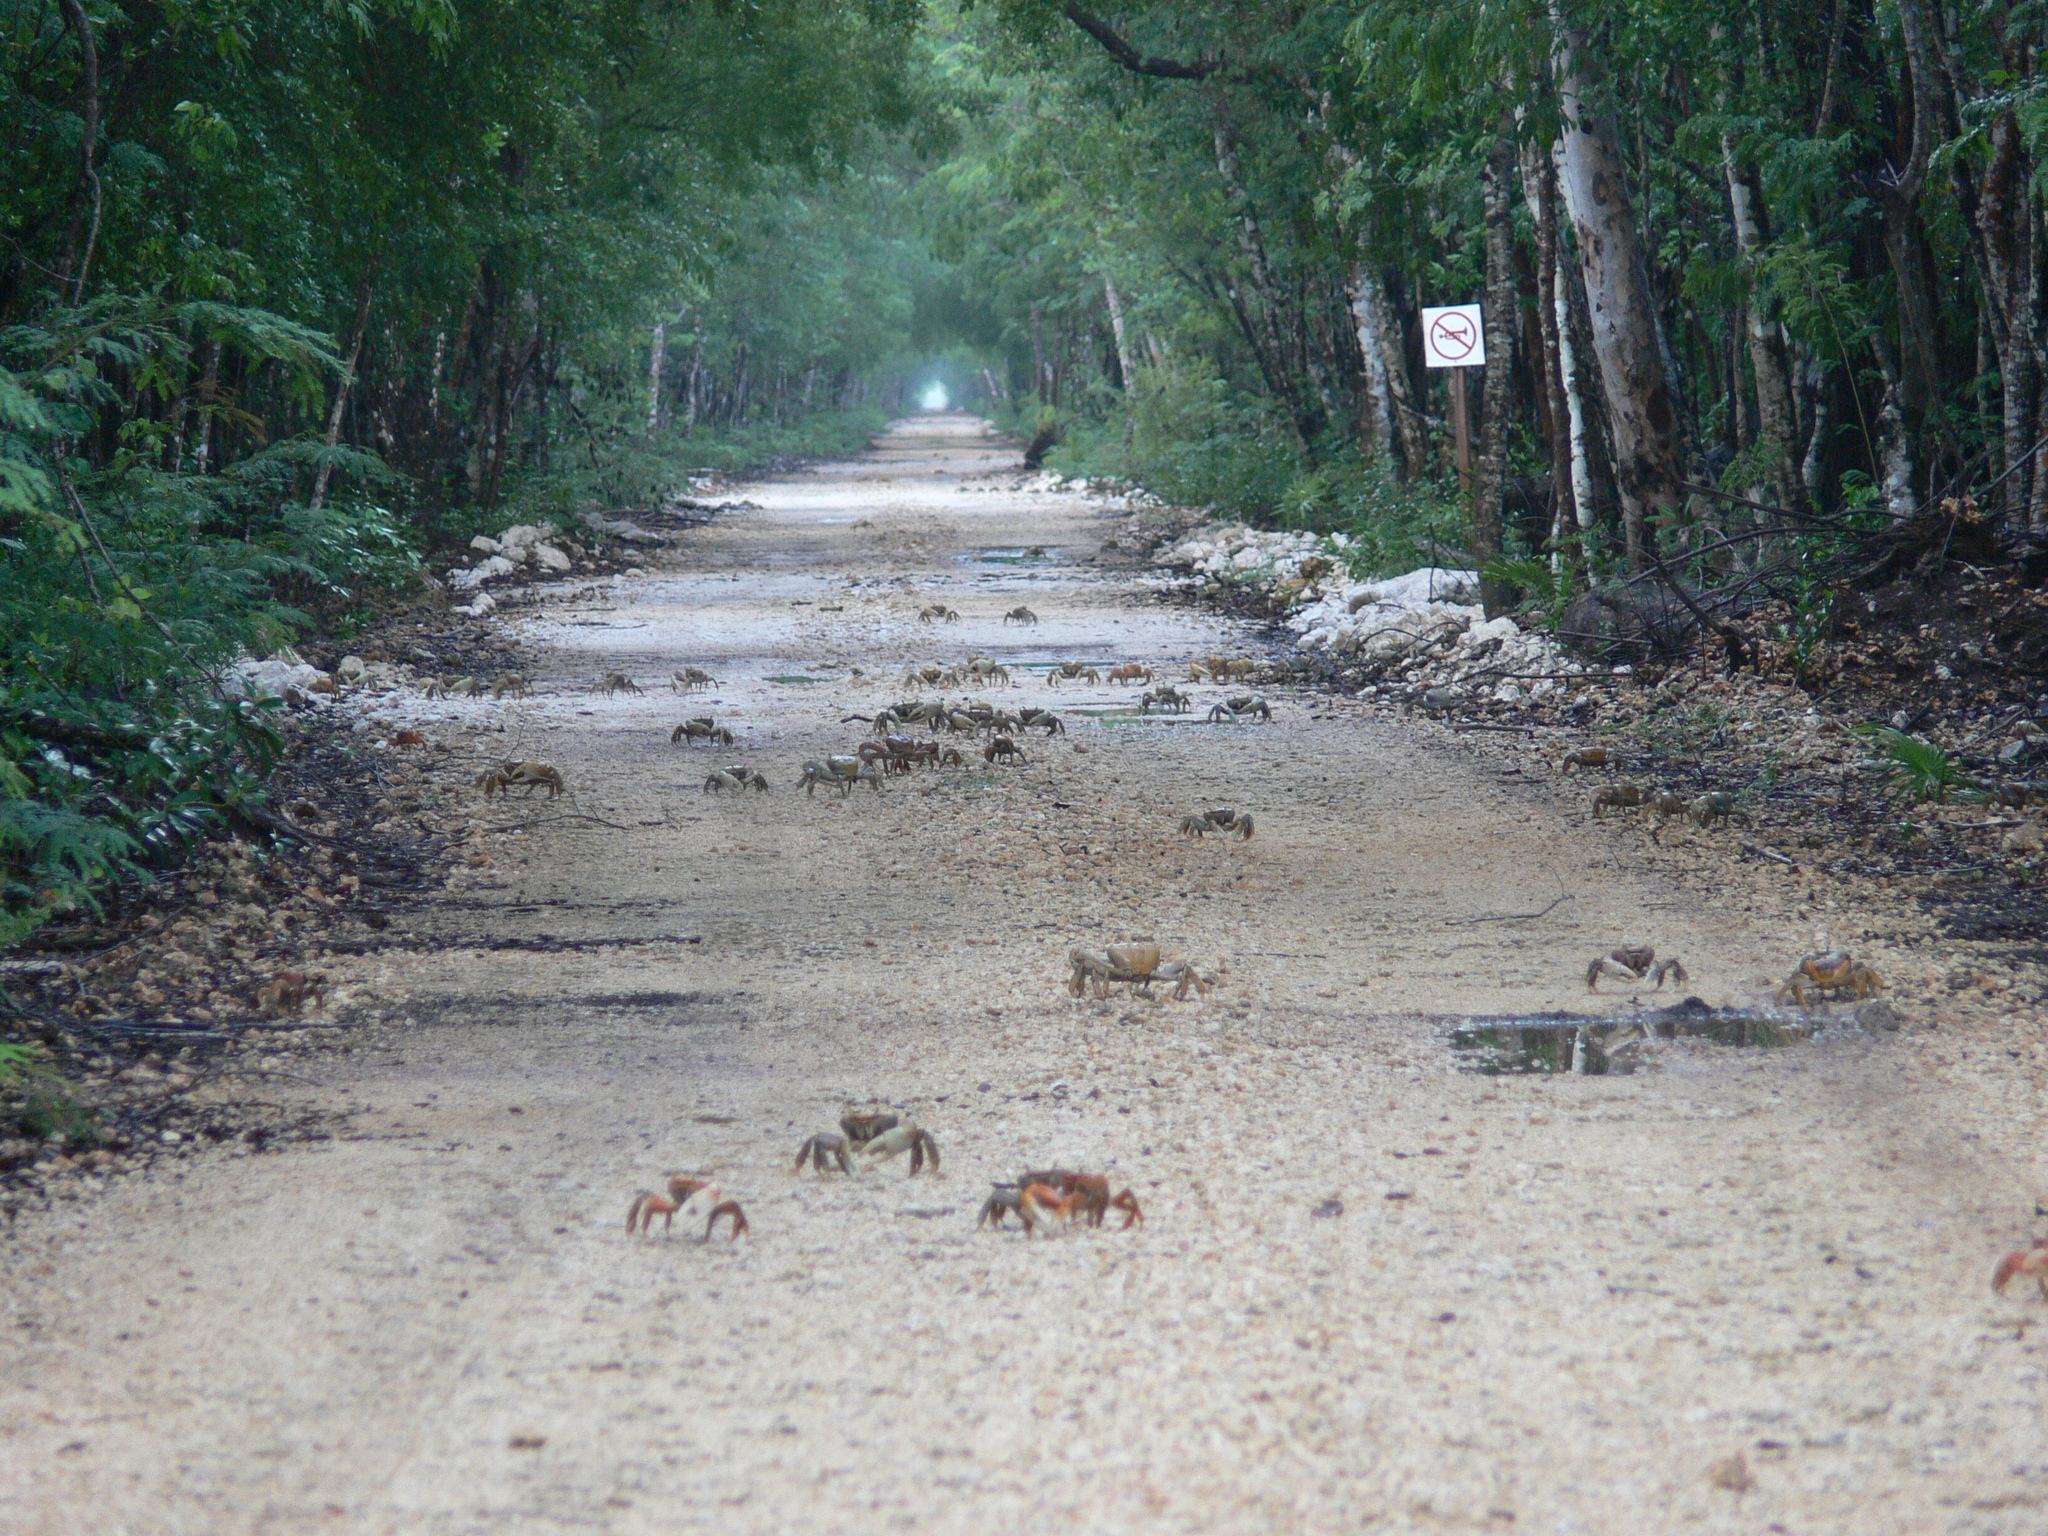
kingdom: Animalia
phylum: Arthropoda
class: Malacostraca
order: Decapoda
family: Gecarcinidae
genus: Cardisoma
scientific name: Cardisoma guanhumi
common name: Great land crab
